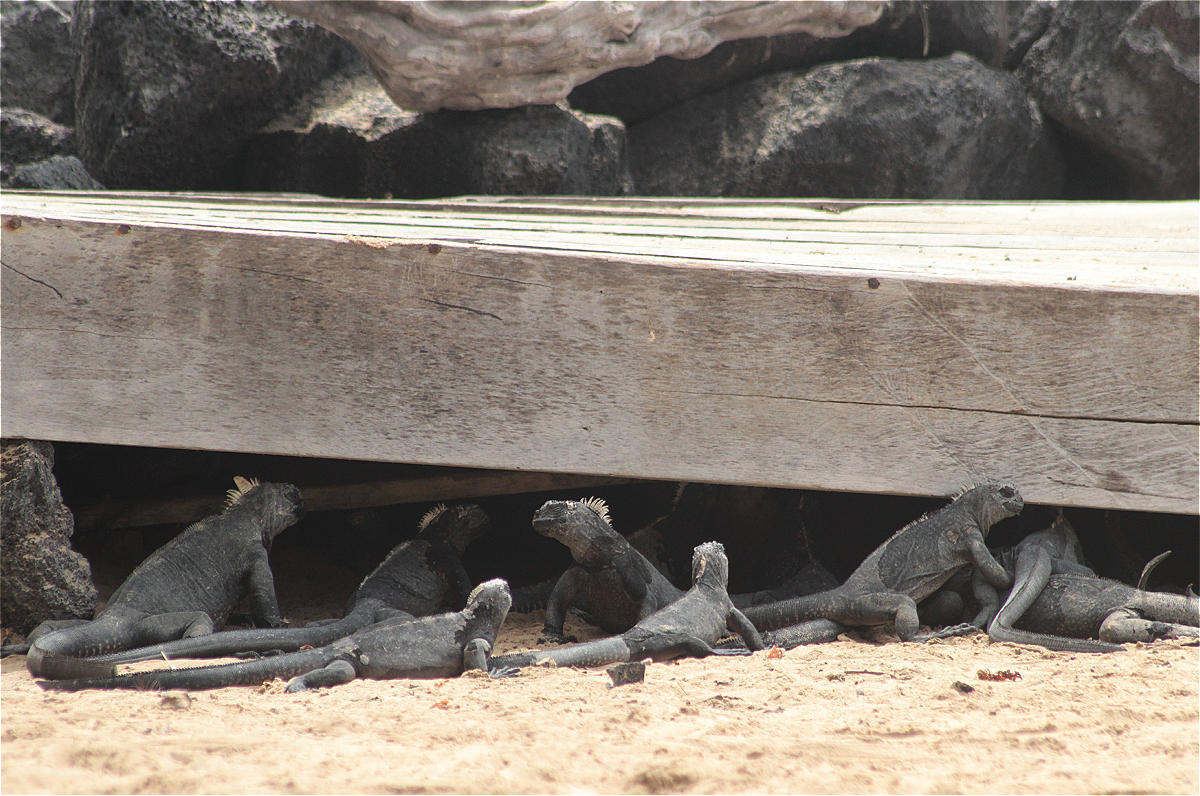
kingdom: Animalia
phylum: Chordata
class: Squamata
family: Iguanidae
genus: Amblyrhynchus
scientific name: Amblyrhynchus cristatus
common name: Marine iguana
